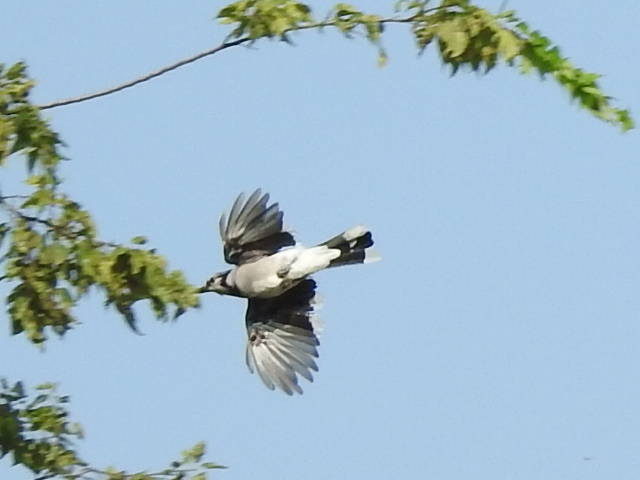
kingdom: Animalia
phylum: Chordata
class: Aves
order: Passeriformes
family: Corvidae
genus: Cyanocitta
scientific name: Cyanocitta cristata
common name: Blue jay
